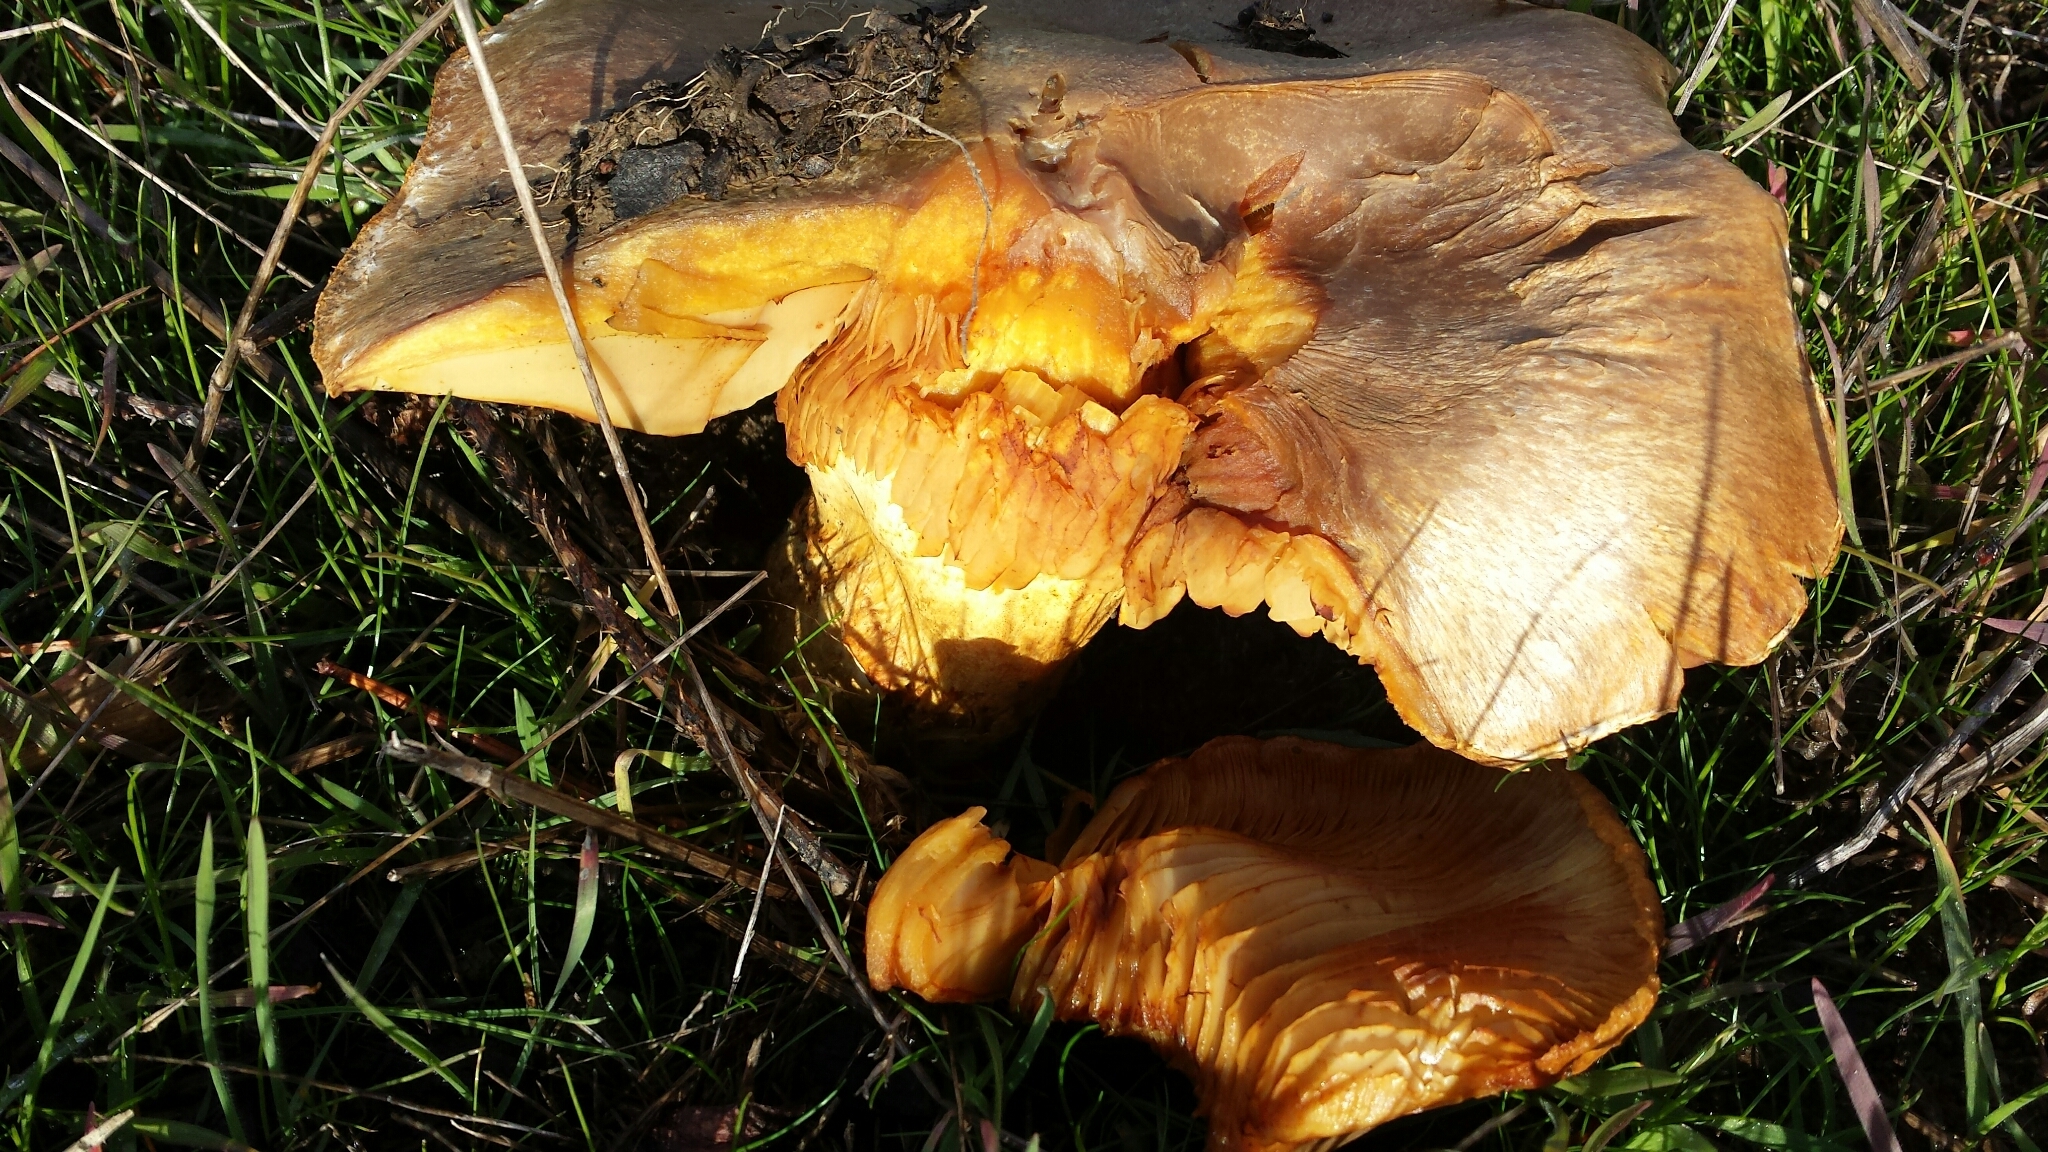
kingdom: Fungi
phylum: Basidiomycota
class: Agaricomycetes
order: Agaricales
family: Omphalotaceae
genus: Omphalotus
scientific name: Omphalotus olivascens
